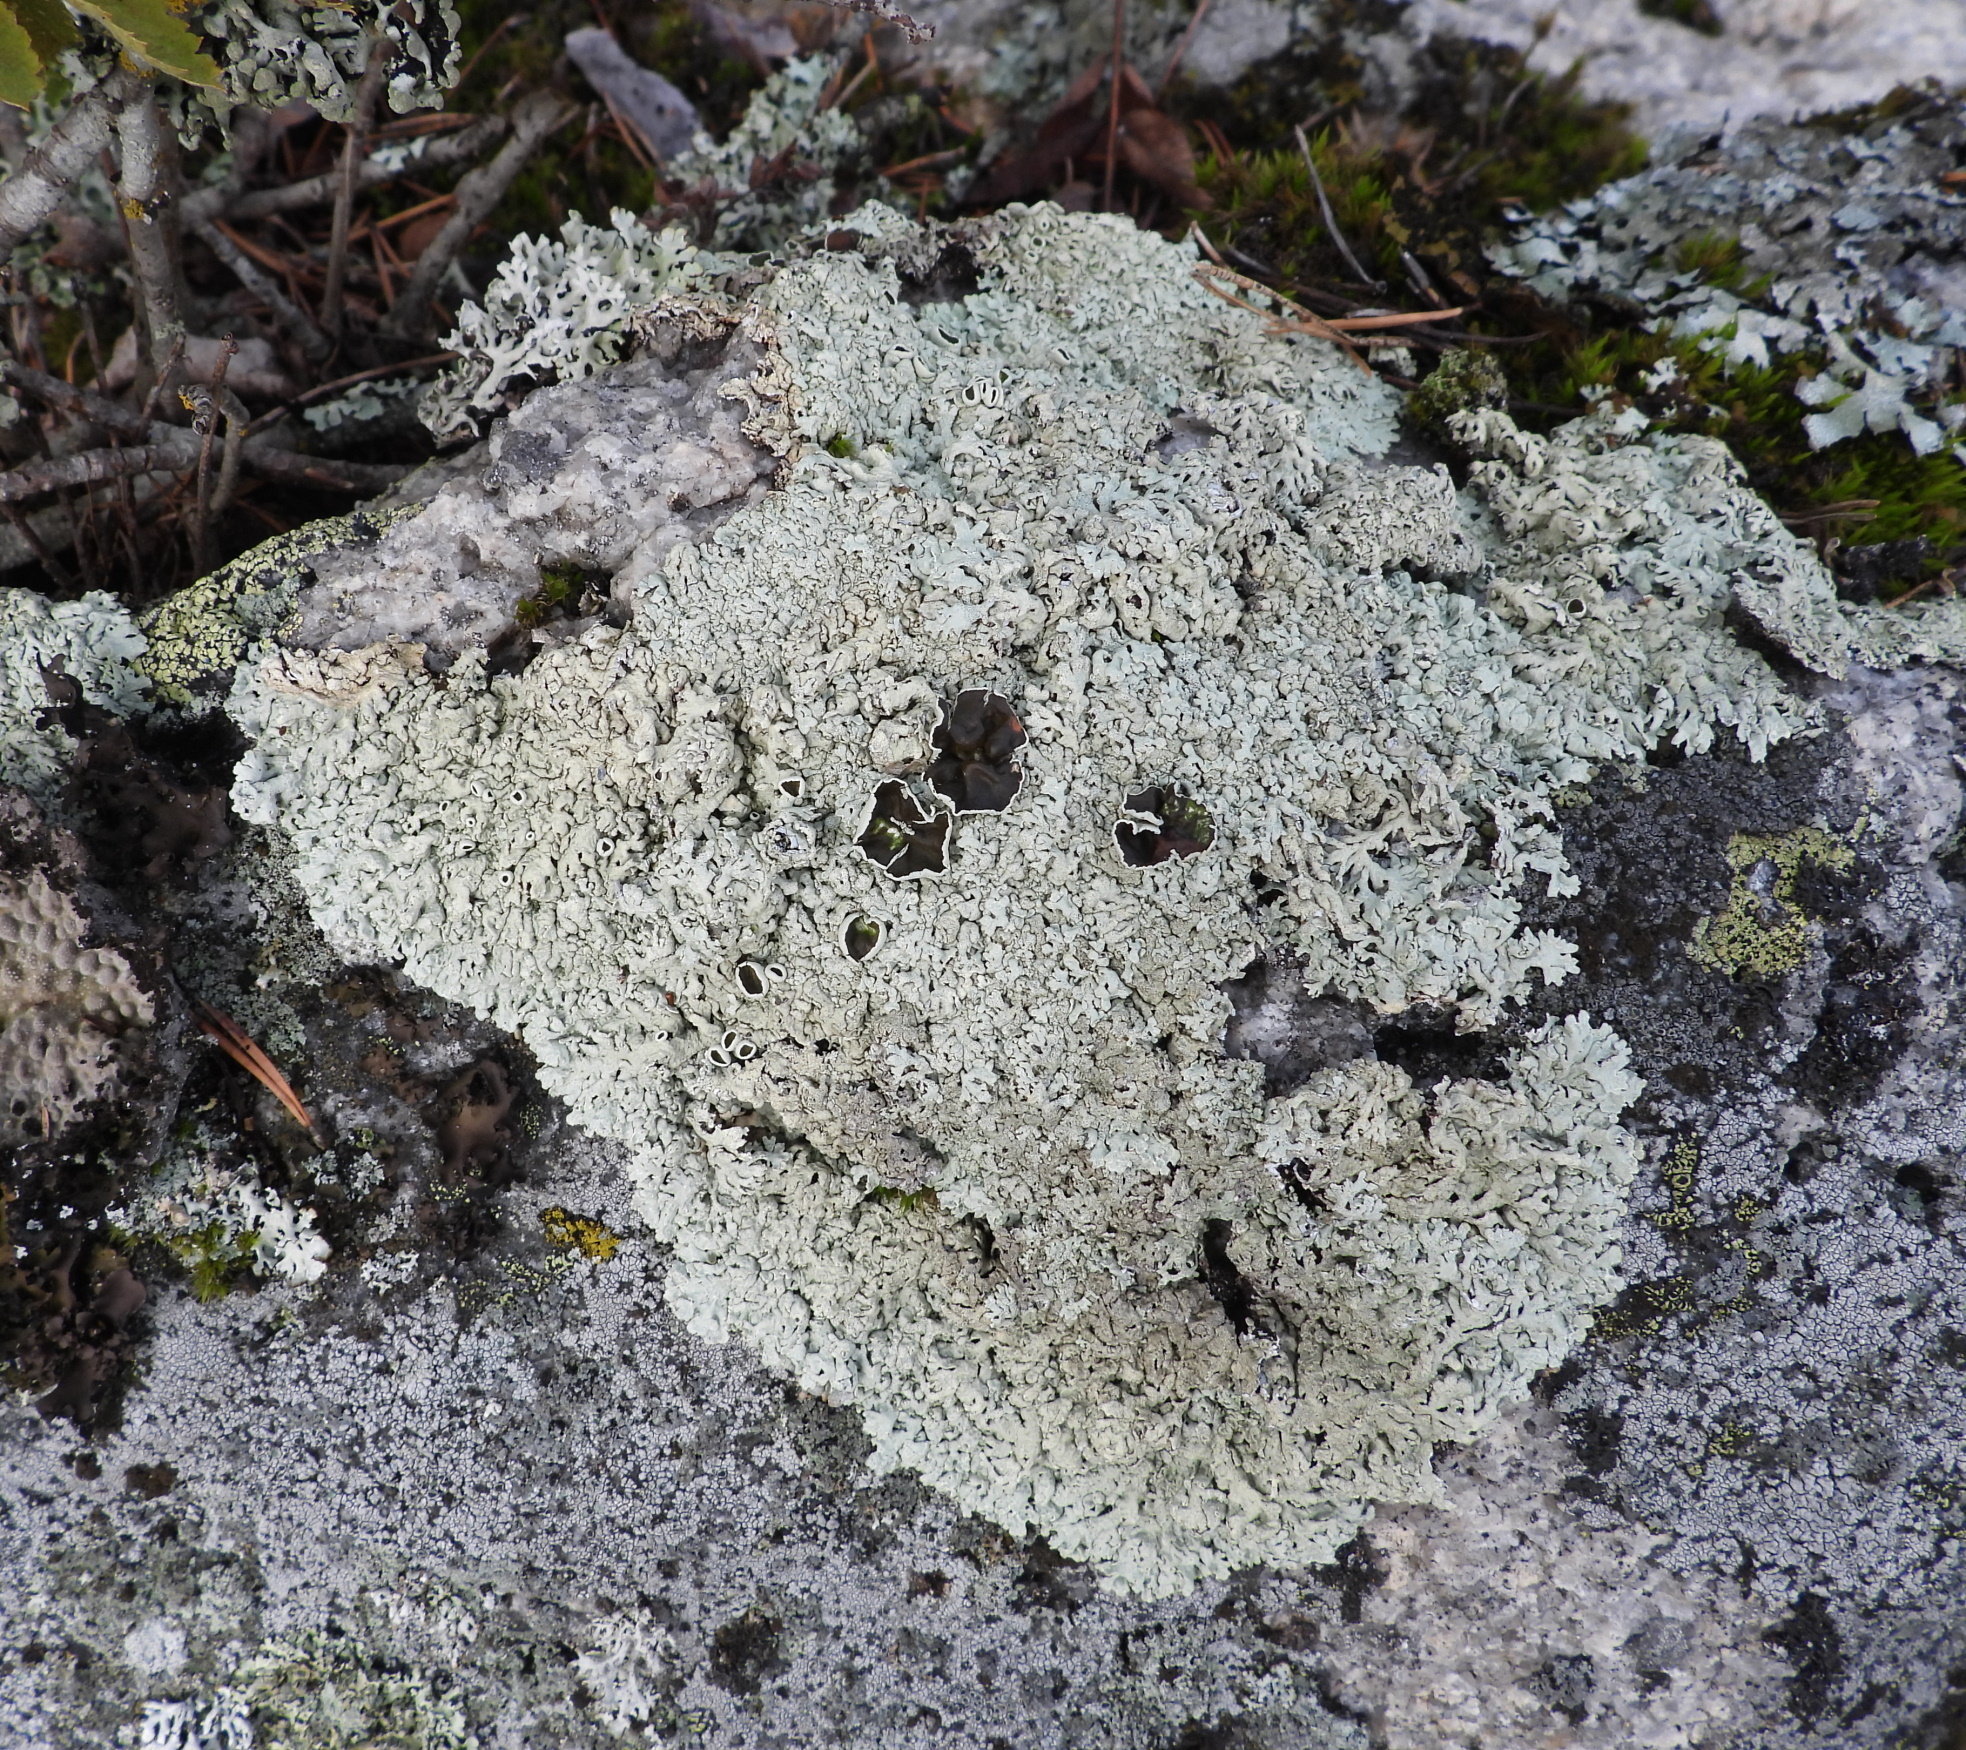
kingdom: Fungi
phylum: Ascomycota
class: Lecanoromycetes
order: Lecanorales
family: Parmeliaceae
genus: Arctoparmelia
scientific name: Arctoparmelia centrifuga
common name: Concentric ring lichen
